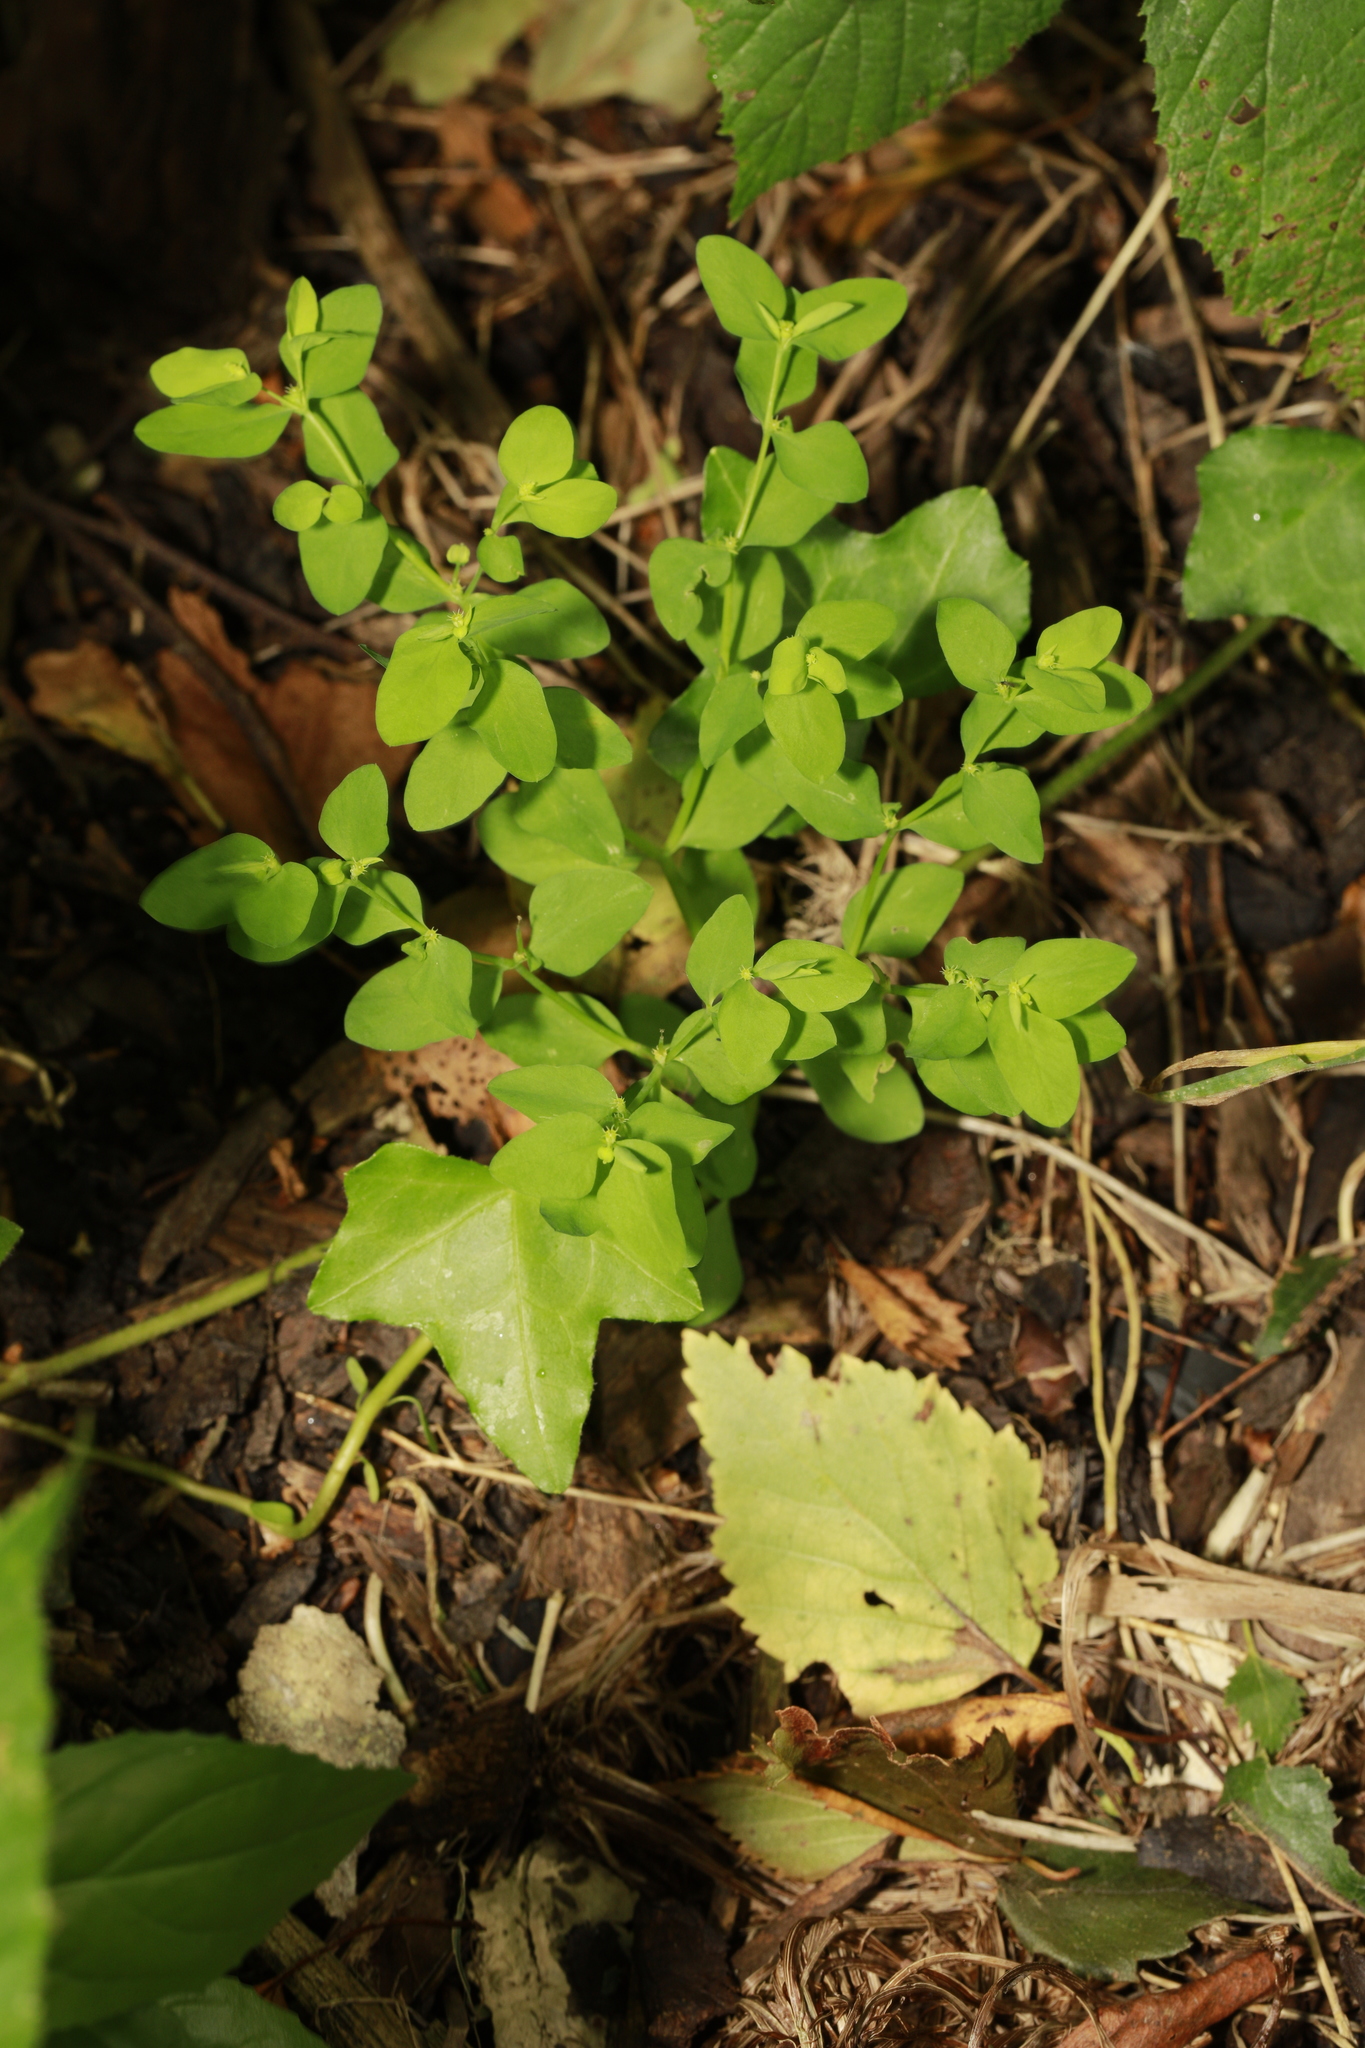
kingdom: Plantae
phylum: Tracheophyta
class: Magnoliopsida
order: Malpighiales
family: Euphorbiaceae
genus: Euphorbia
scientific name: Euphorbia peplus
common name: Petty spurge
